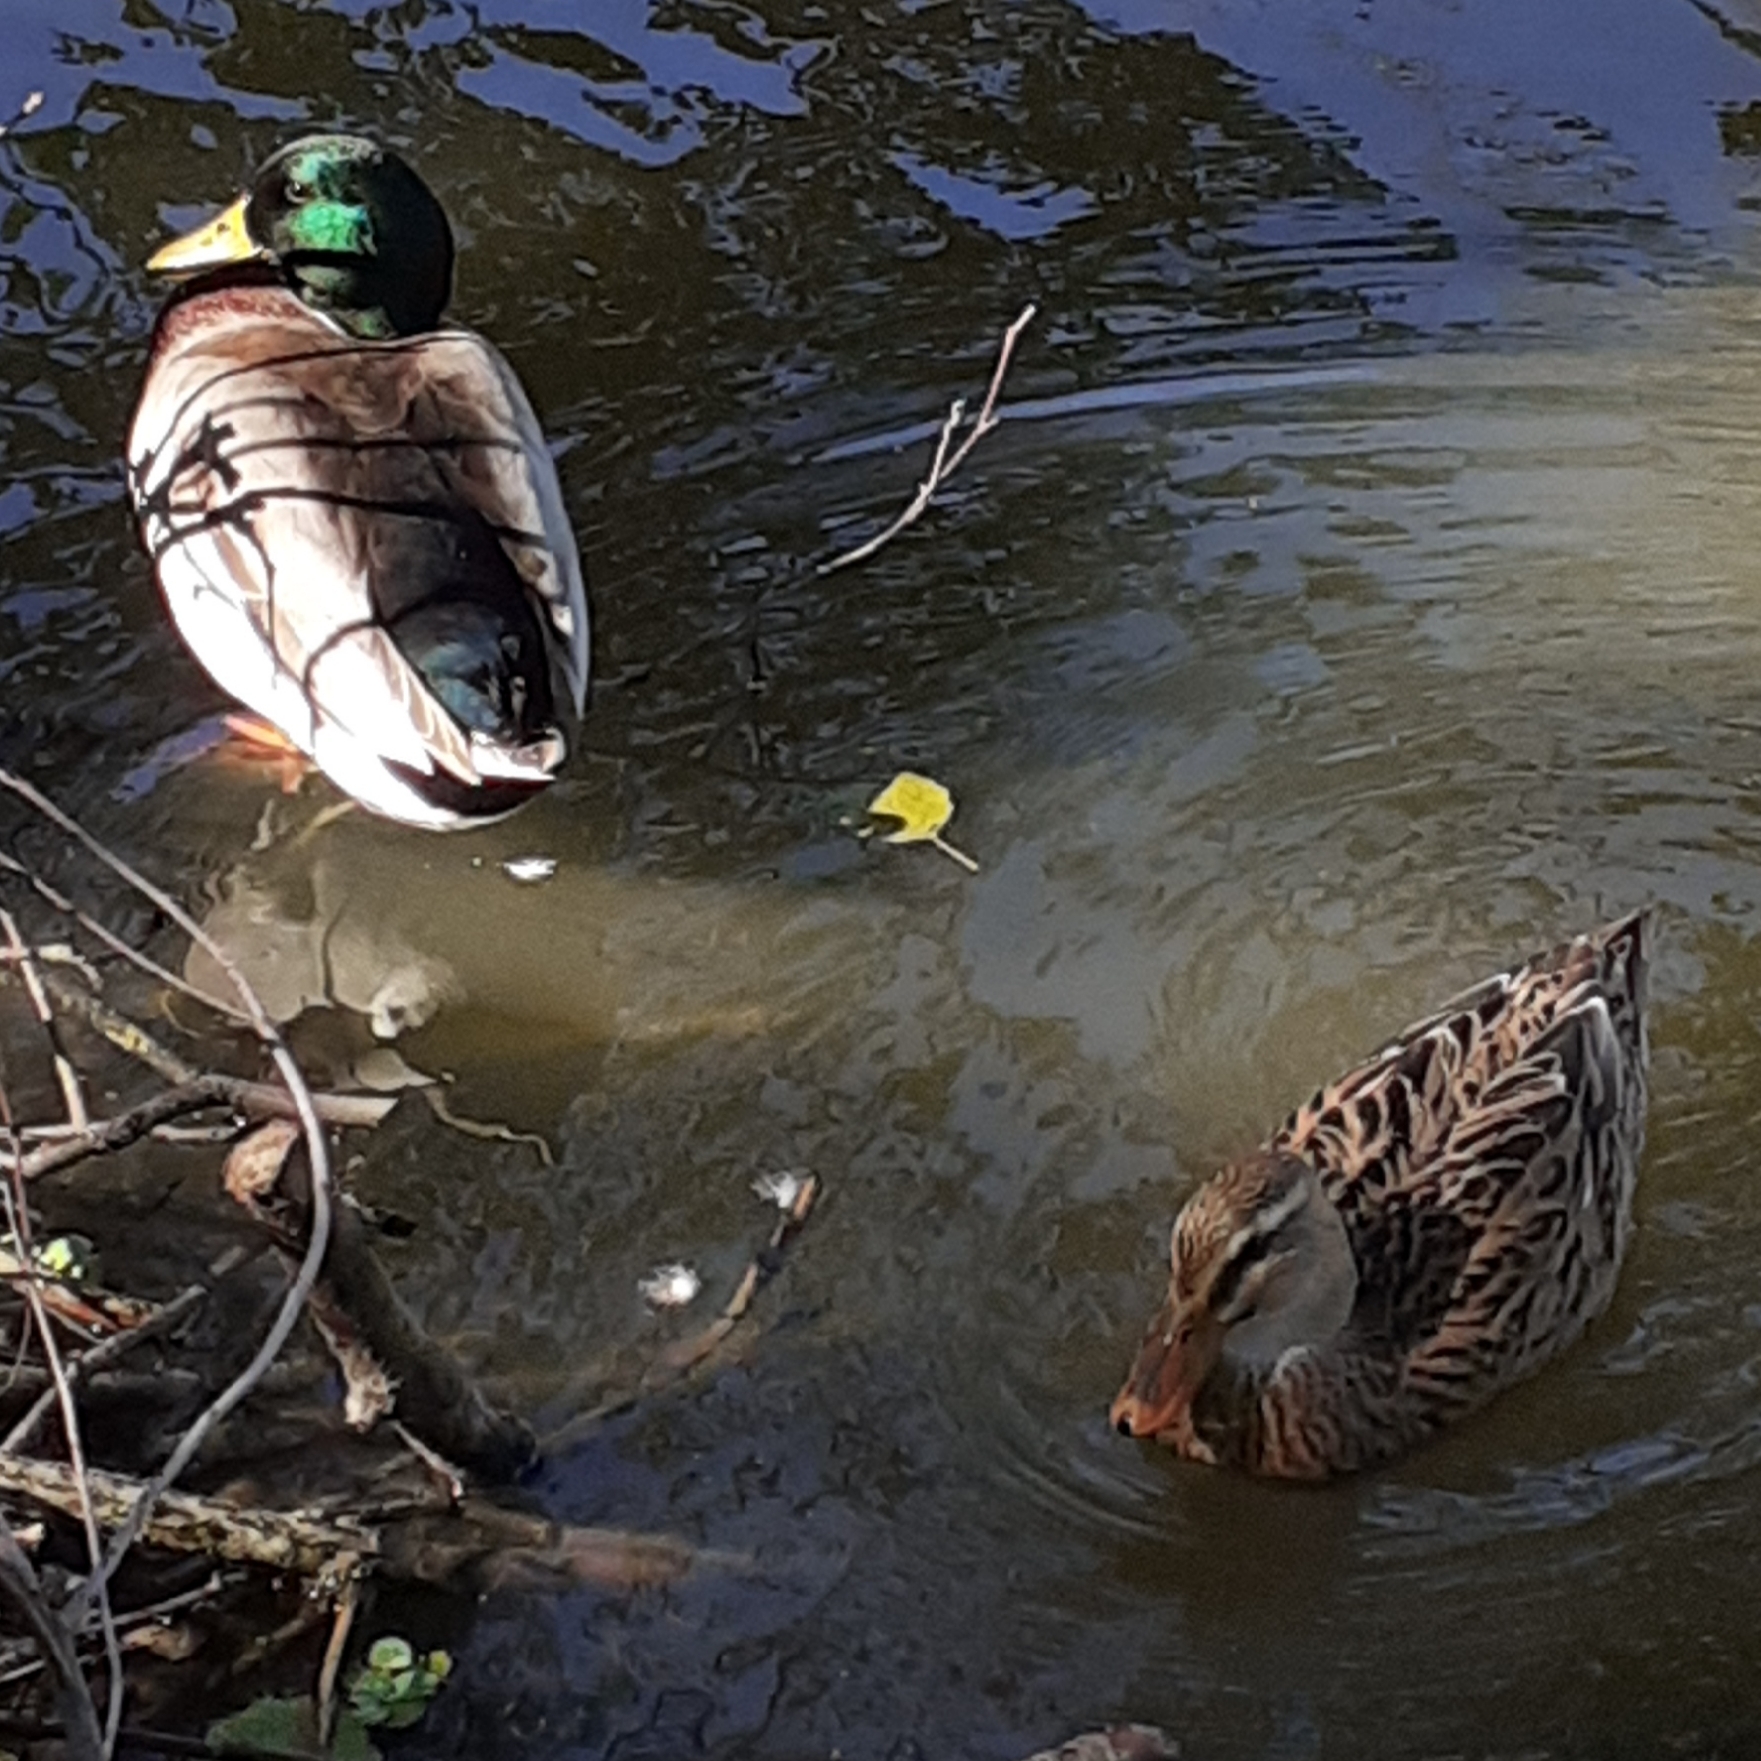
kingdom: Animalia
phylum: Chordata
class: Aves
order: Anseriformes
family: Anatidae
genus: Anas
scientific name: Anas platyrhynchos
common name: Mallard
